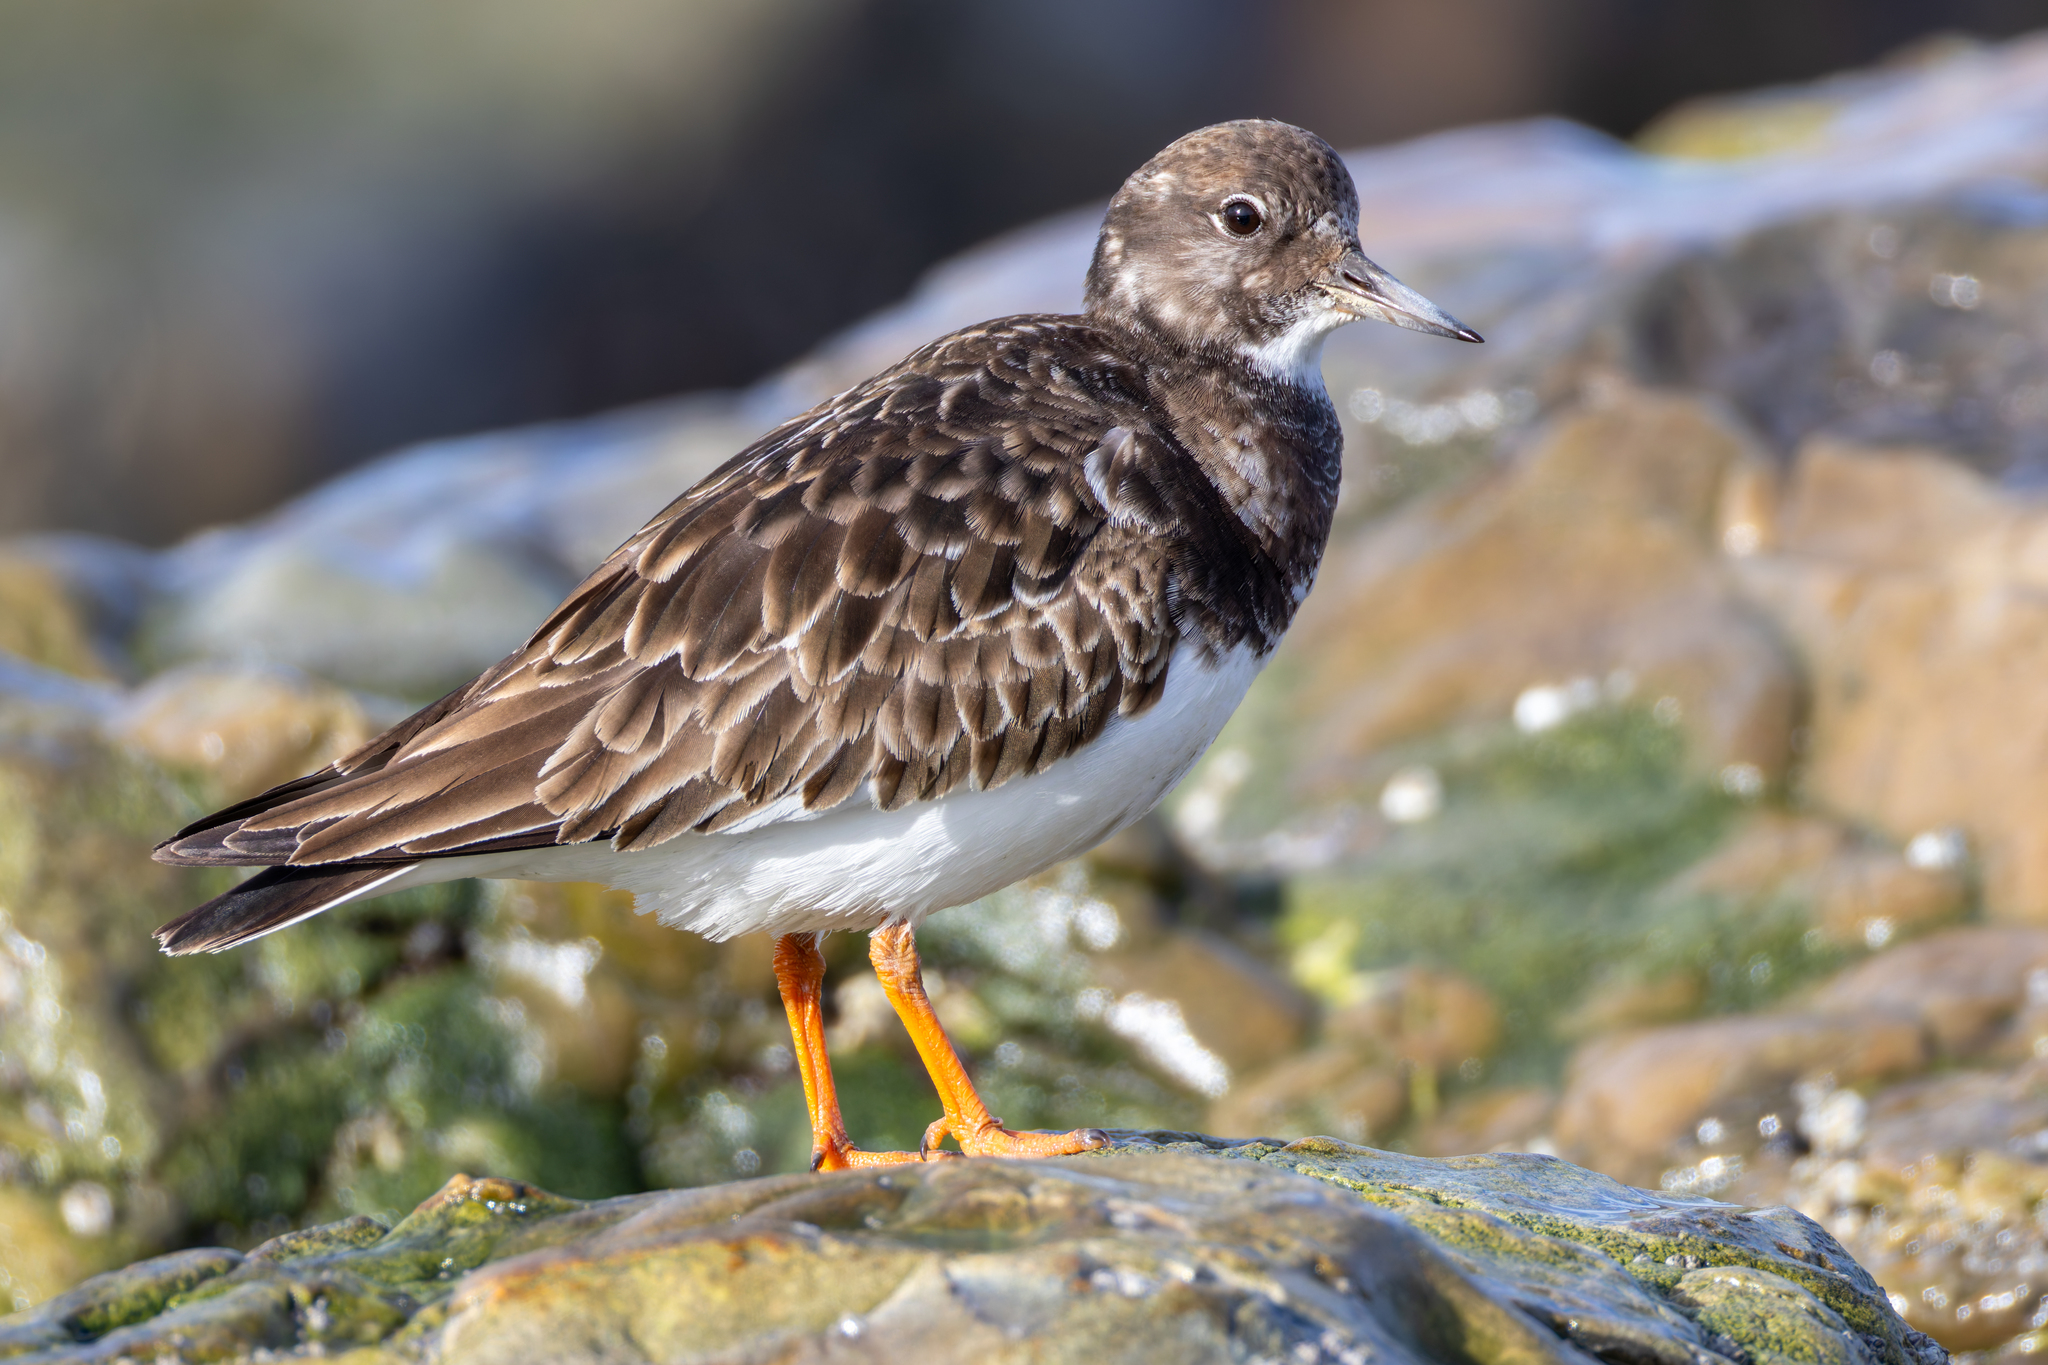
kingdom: Animalia
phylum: Chordata
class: Aves
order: Charadriiformes
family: Scolopacidae
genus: Arenaria
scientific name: Arenaria interpres
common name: Ruddy turnstone
